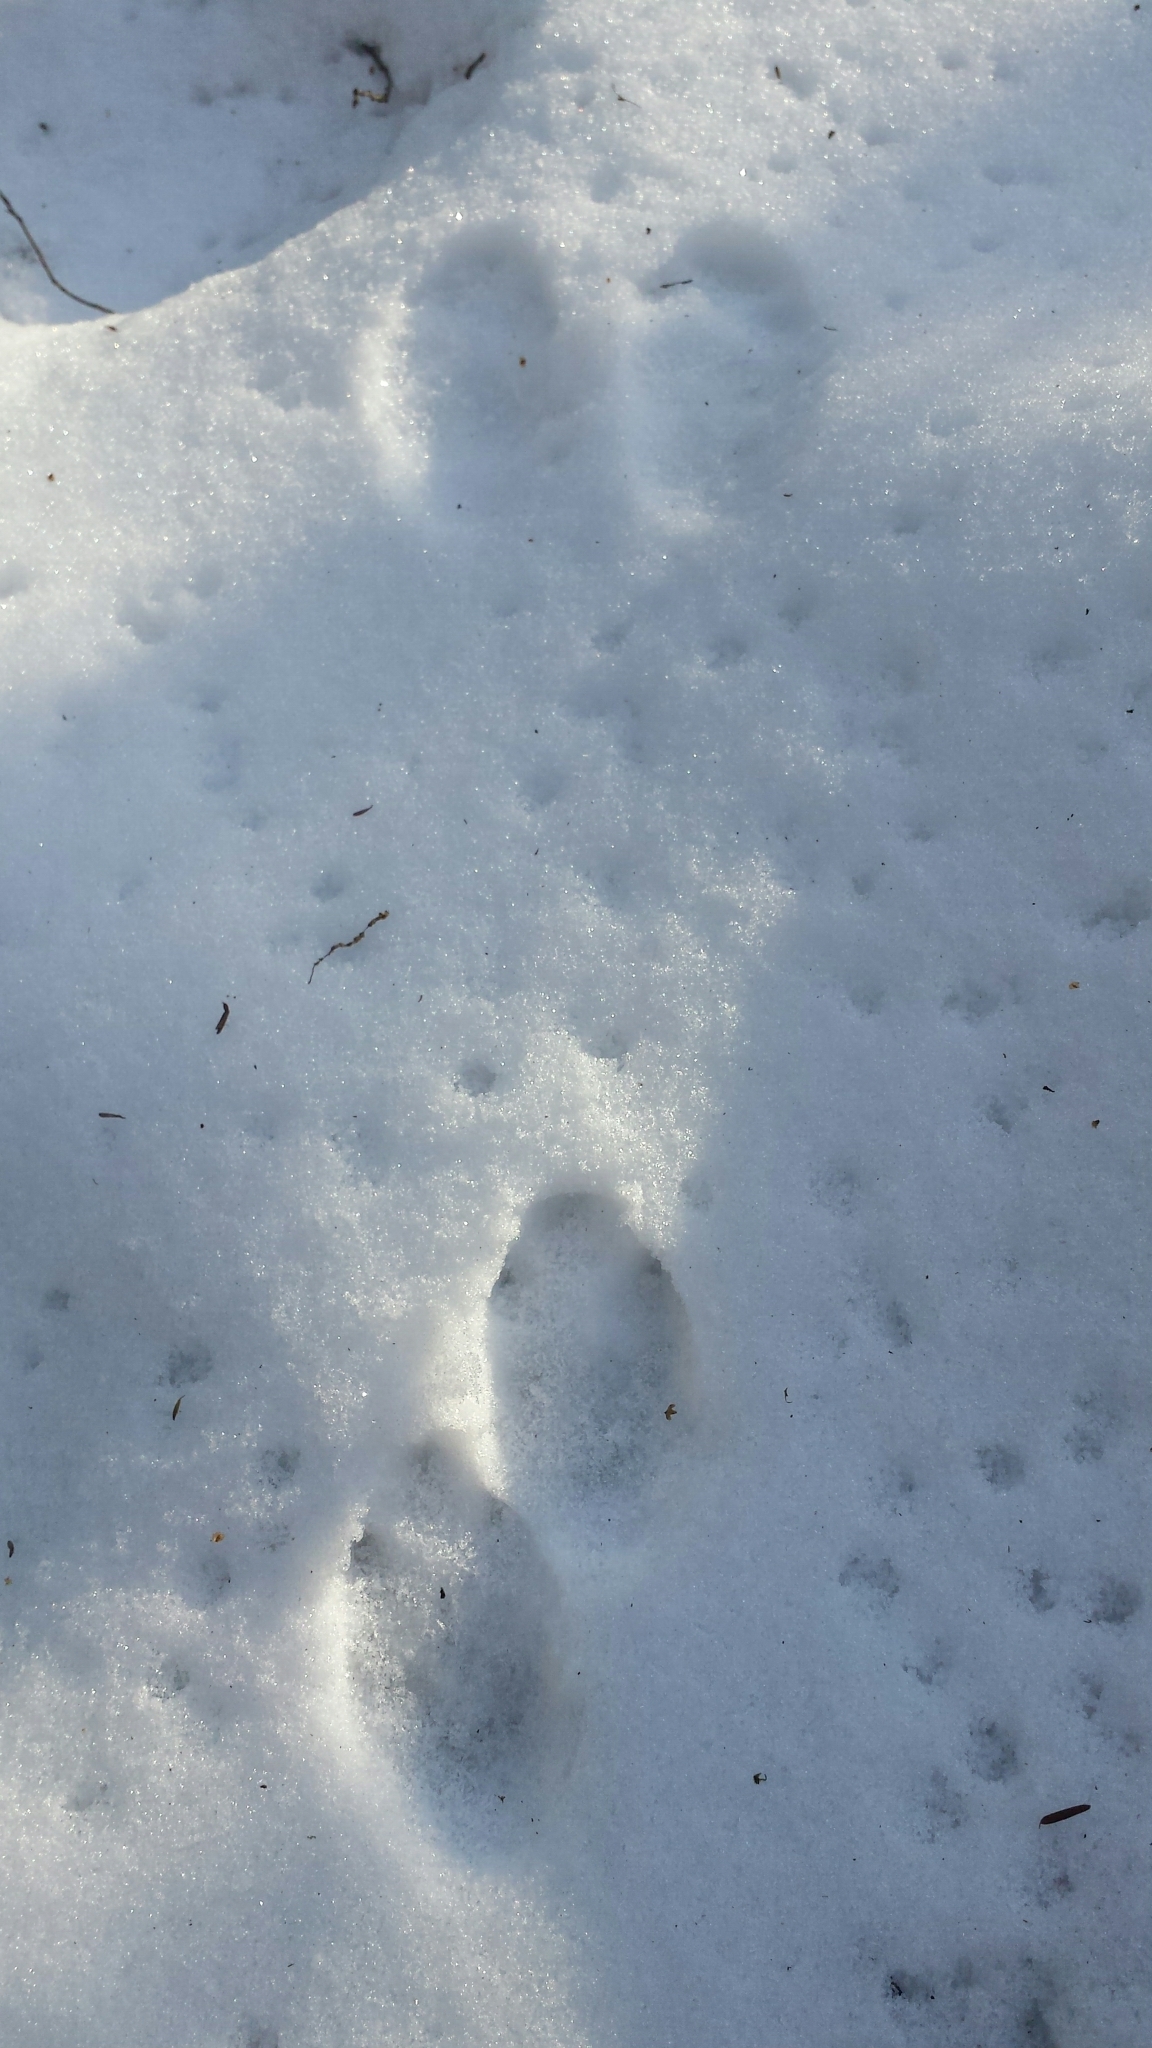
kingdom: Animalia
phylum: Chordata
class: Mammalia
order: Lagomorpha
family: Leporidae
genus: Lepus
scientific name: Lepus americanus
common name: Snowshoe hare
